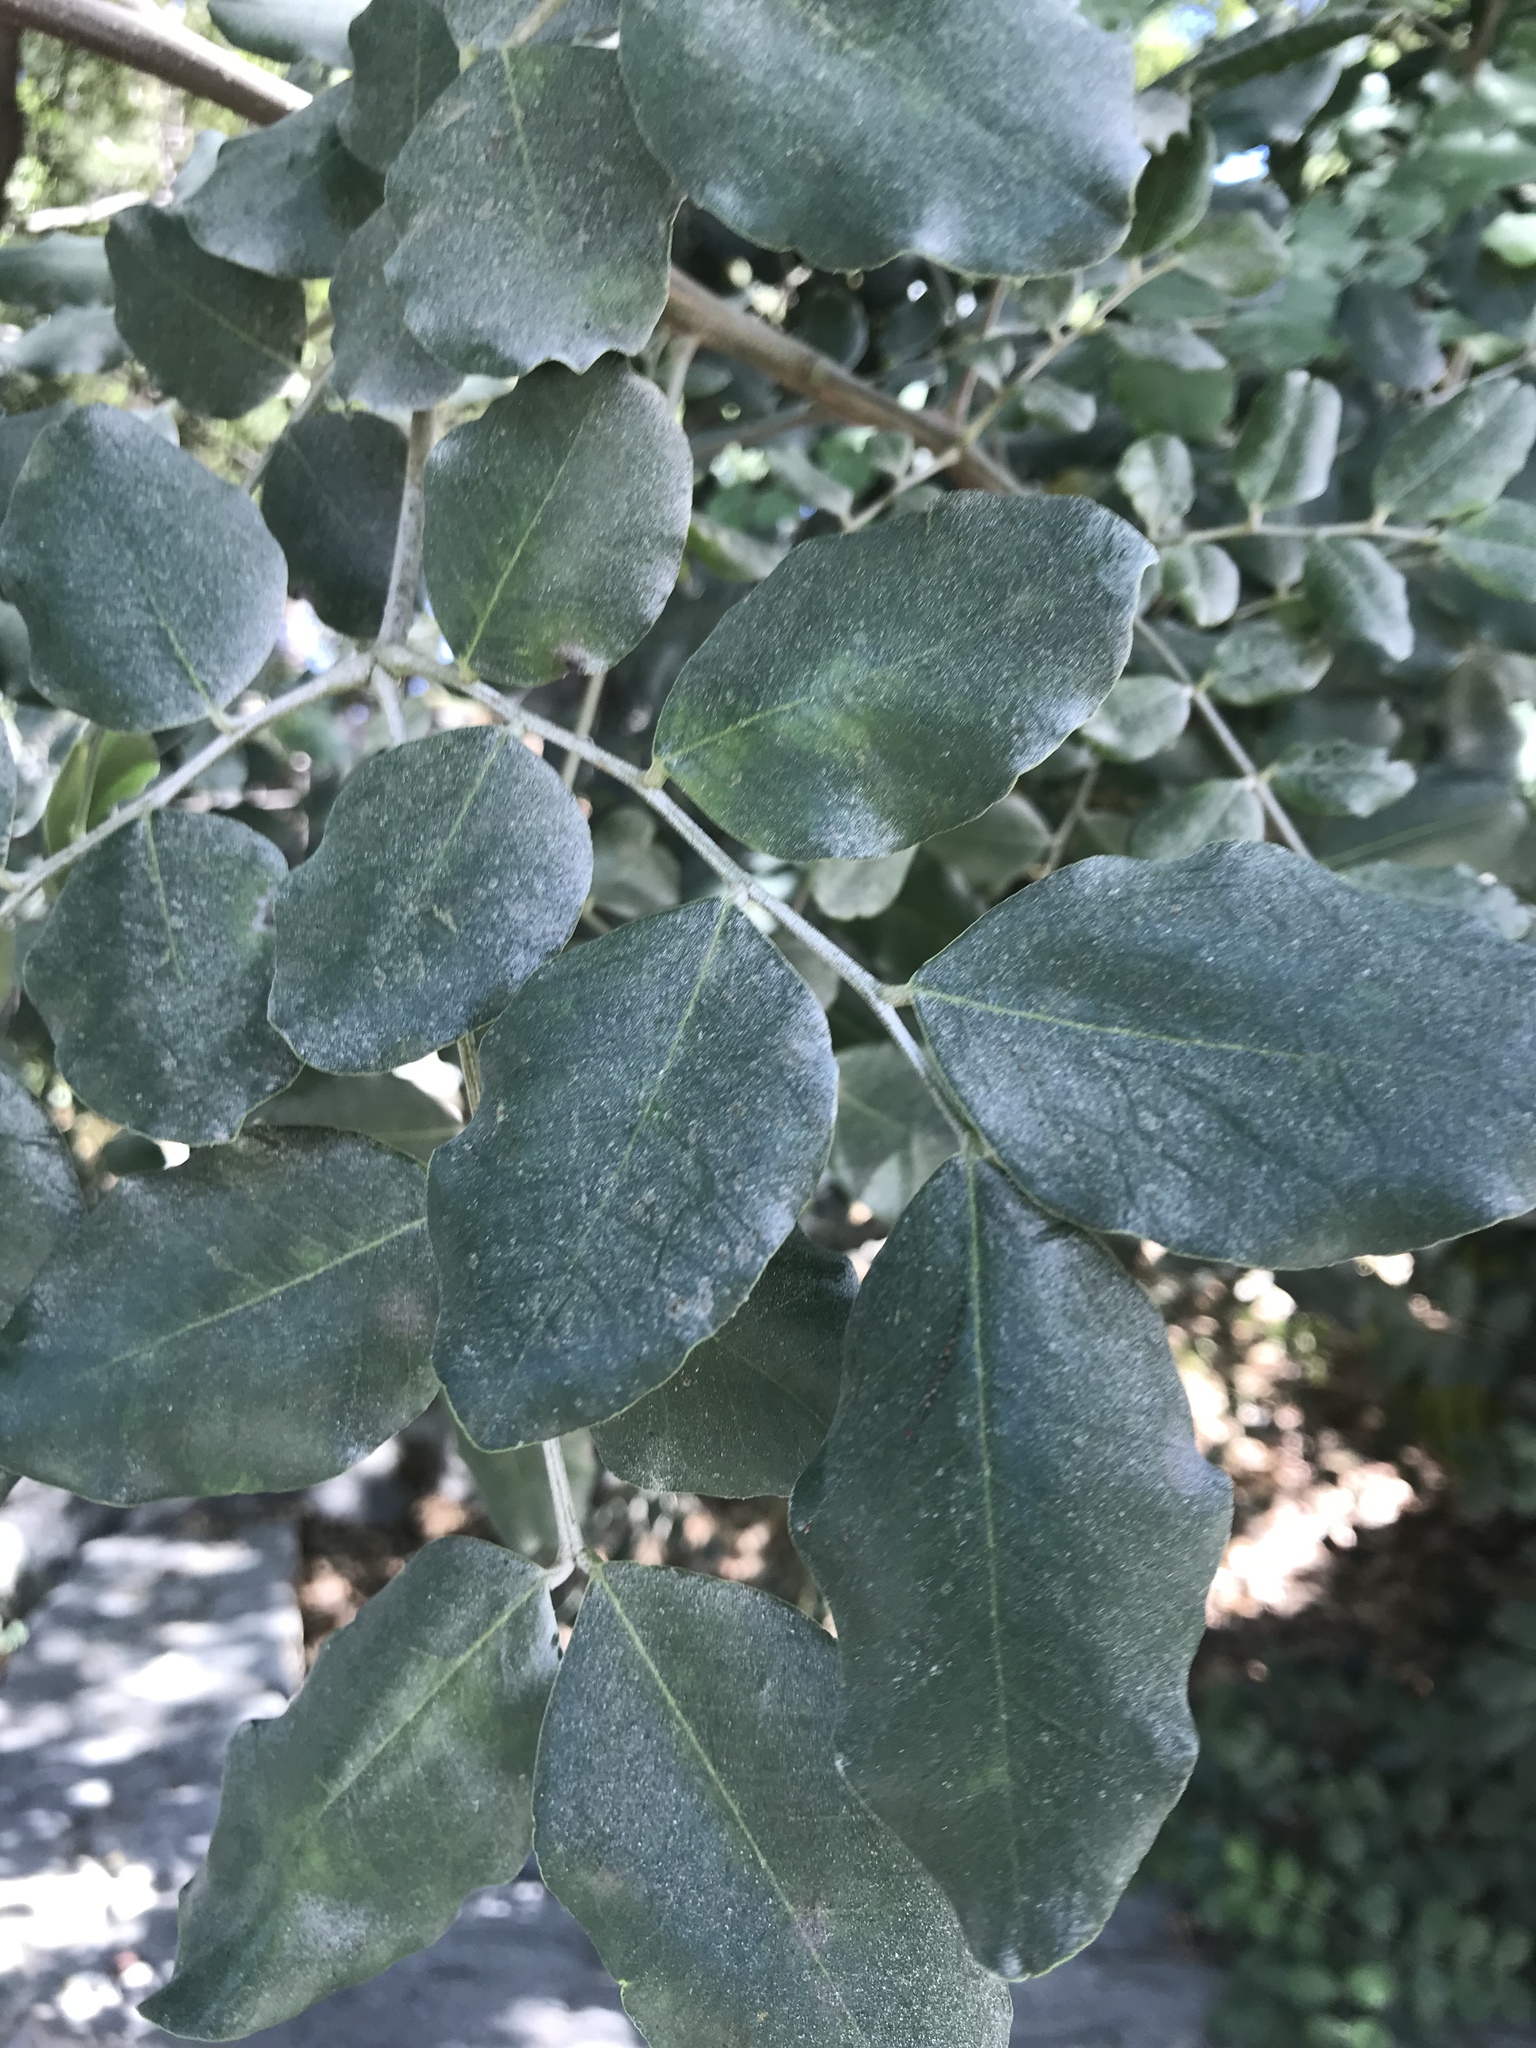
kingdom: Plantae
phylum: Tracheophyta
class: Magnoliopsida
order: Fabales
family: Fabaceae
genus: Ceratonia
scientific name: Ceratonia siliqua
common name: Carob
